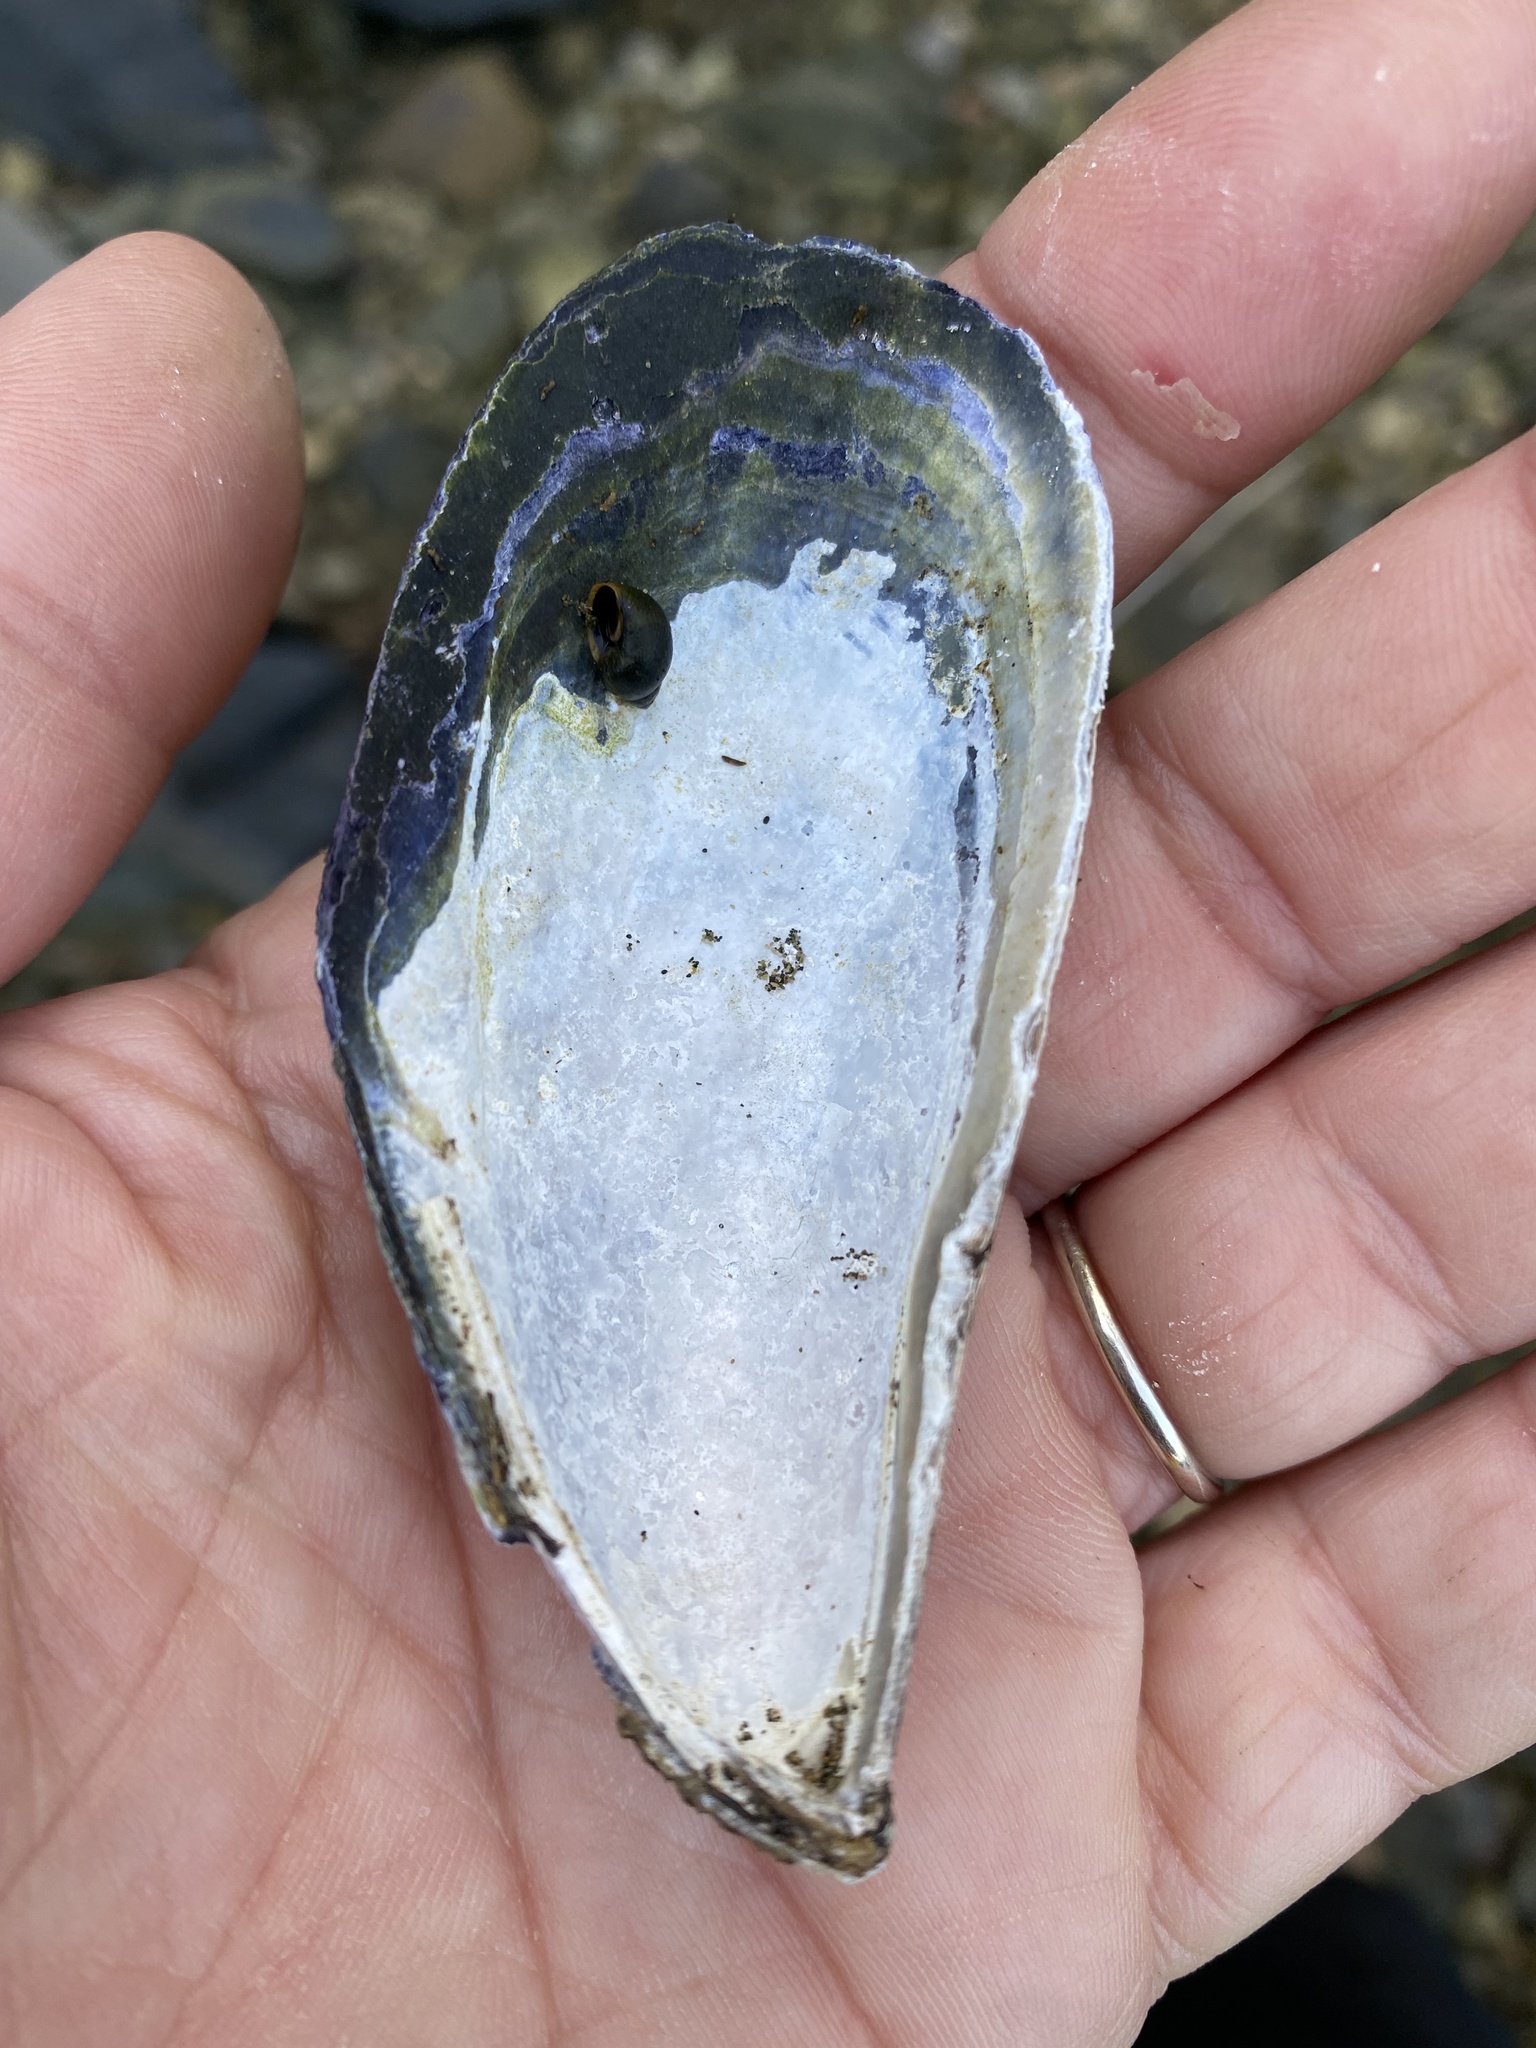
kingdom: Animalia
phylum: Mollusca
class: Bivalvia
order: Mytilida
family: Mytilidae
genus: Mytilus
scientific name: Mytilus californianus
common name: California mussel
